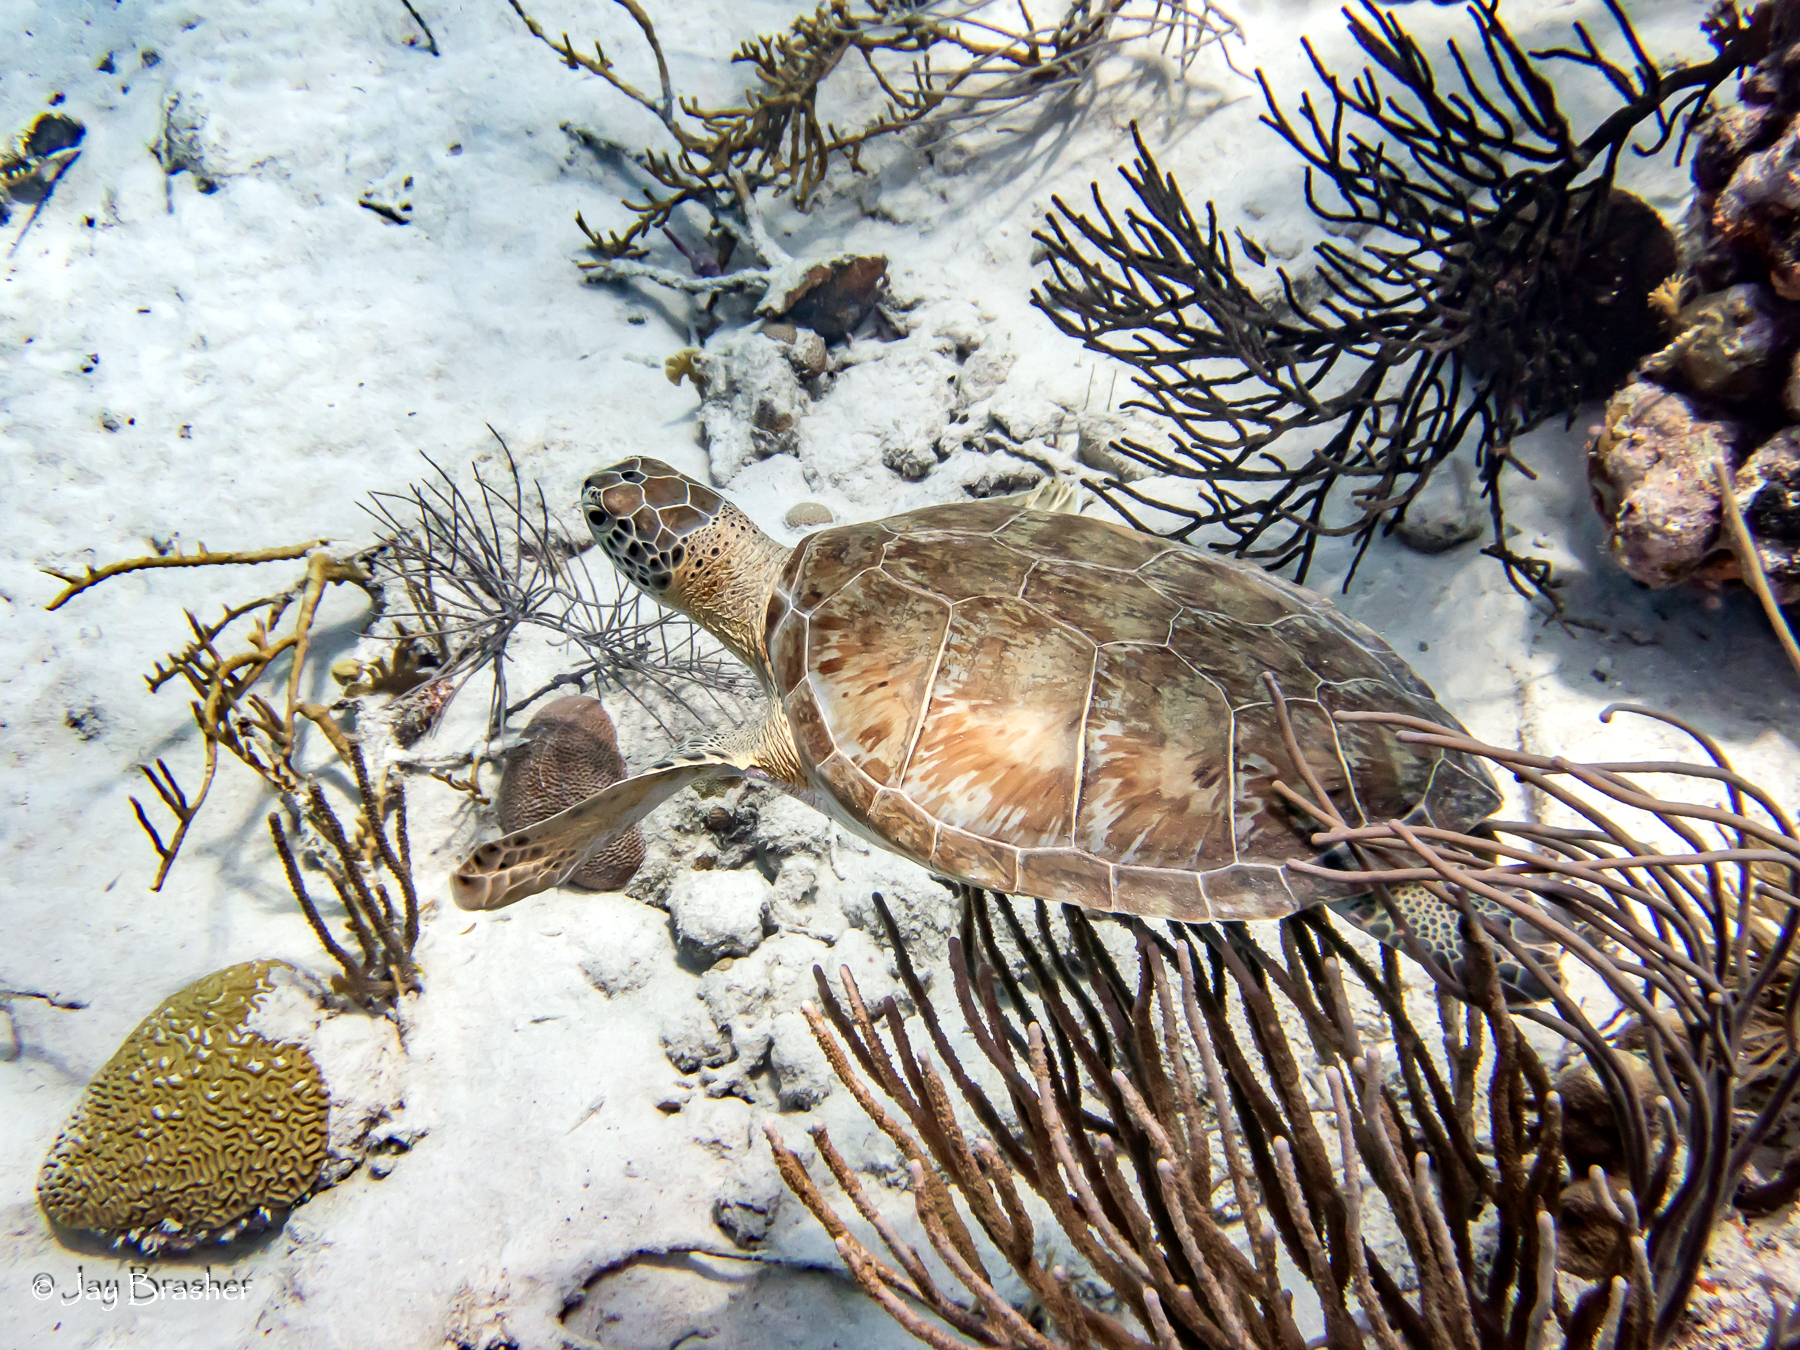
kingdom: Animalia
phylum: Chordata
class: Testudines
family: Cheloniidae
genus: Chelonia
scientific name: Chelonia mydas
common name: Green turtle
